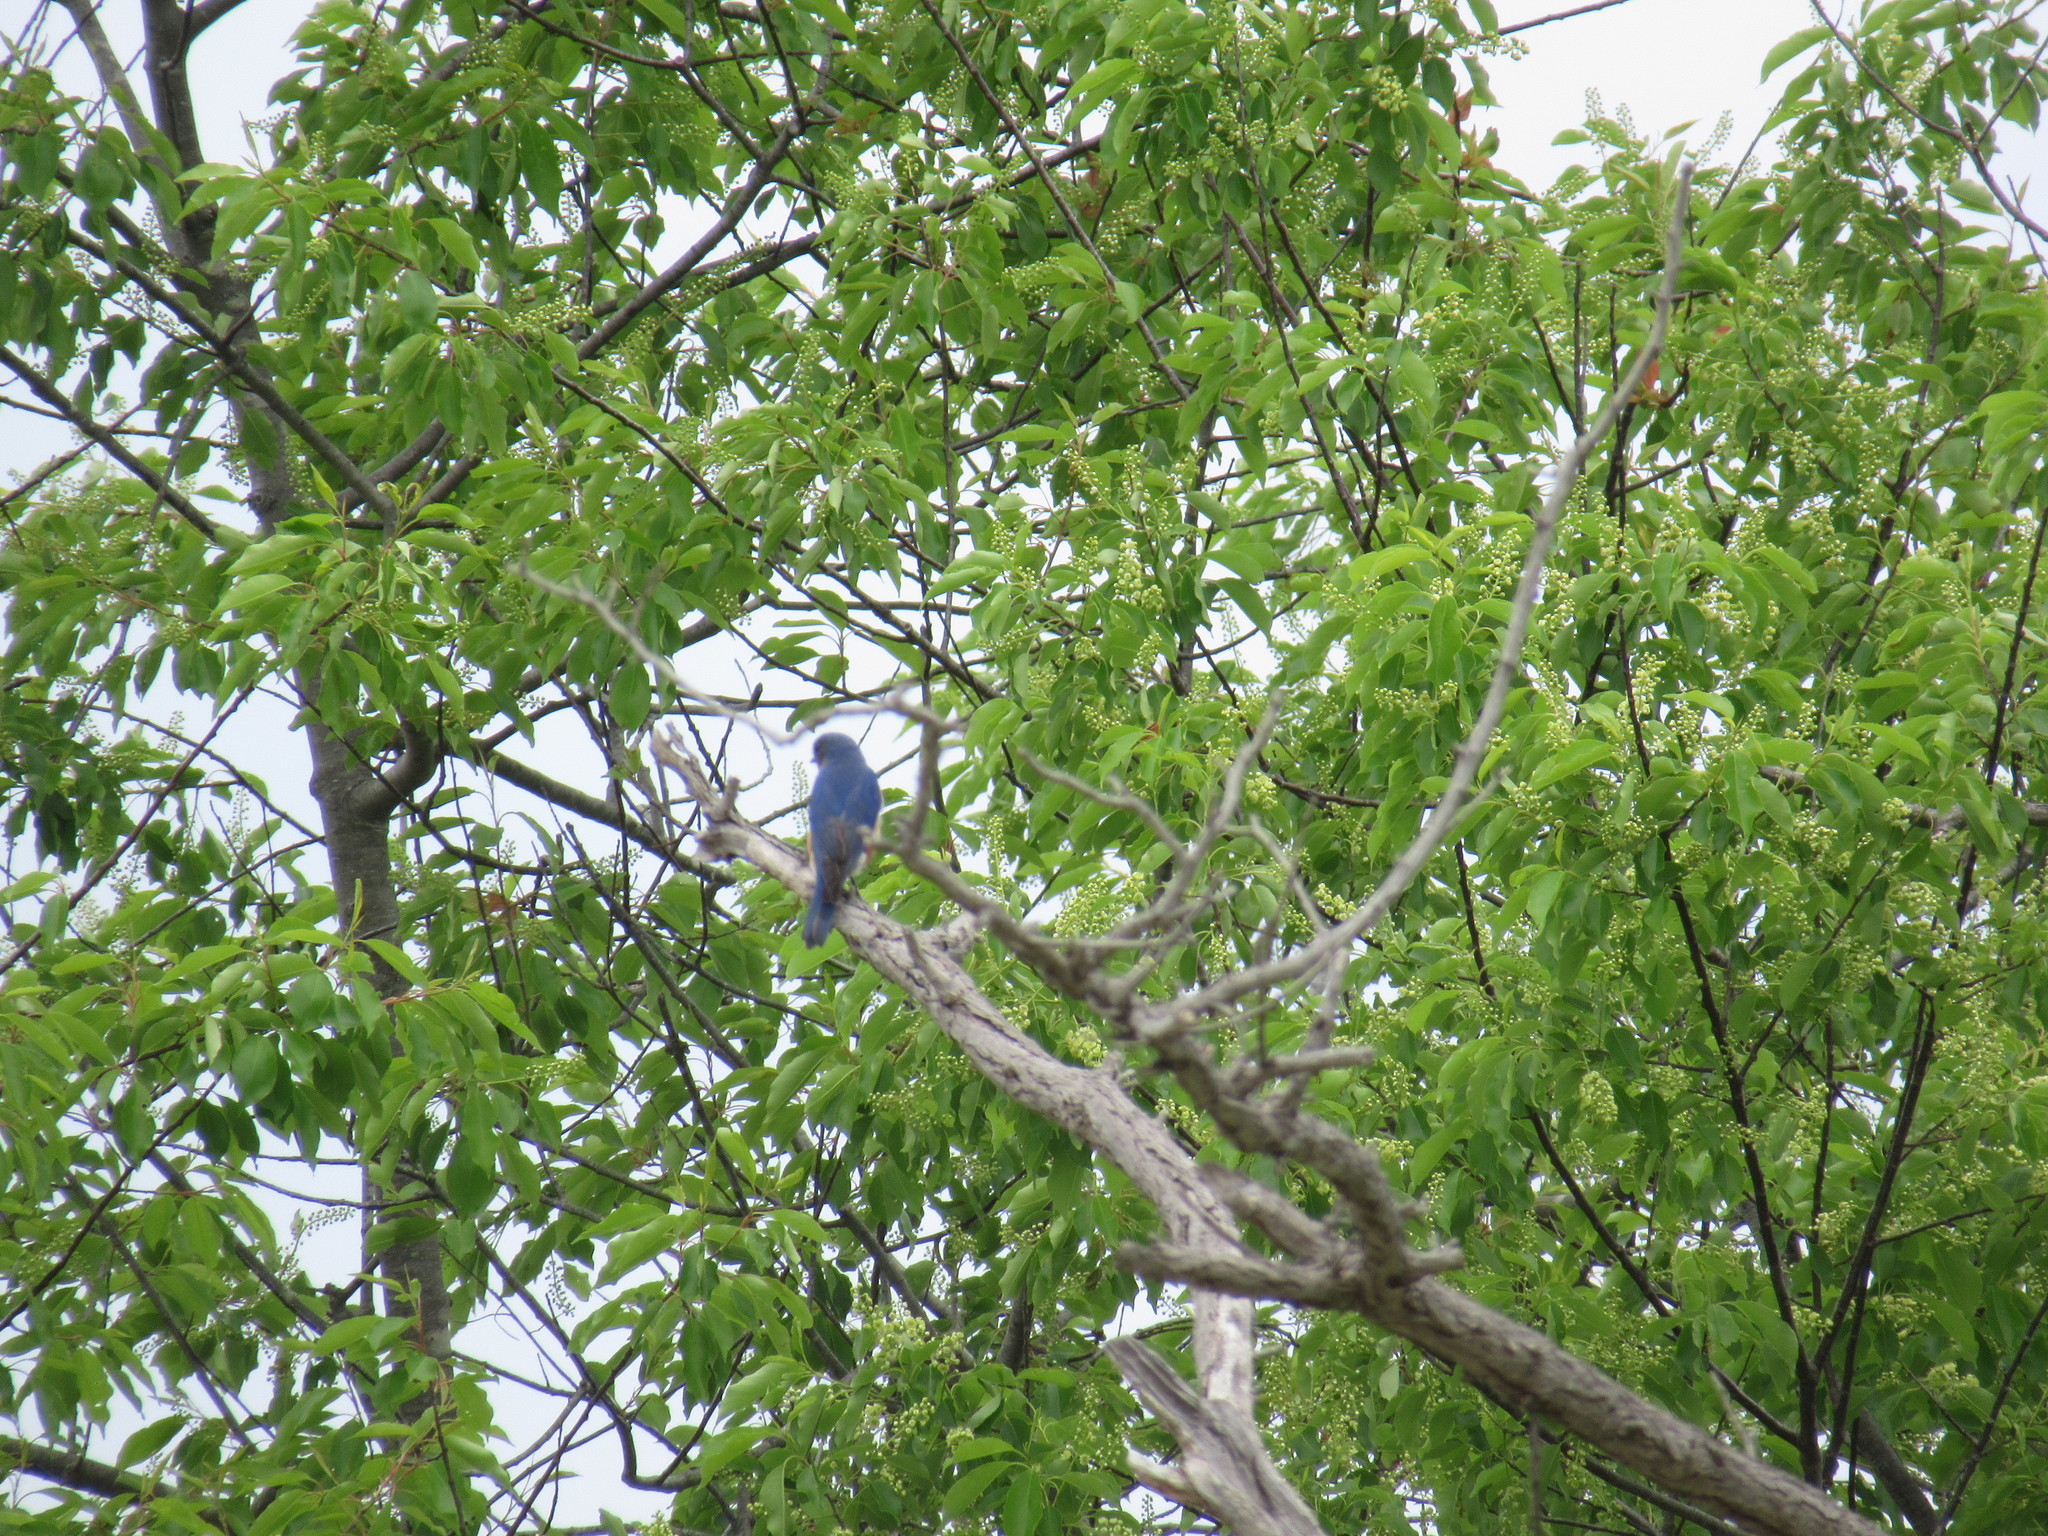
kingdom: Animalia
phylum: Chordata
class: Aves
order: Passeriformes
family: Turdidae
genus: Sialia
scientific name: Sialia sialis
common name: Eastern bluebird
